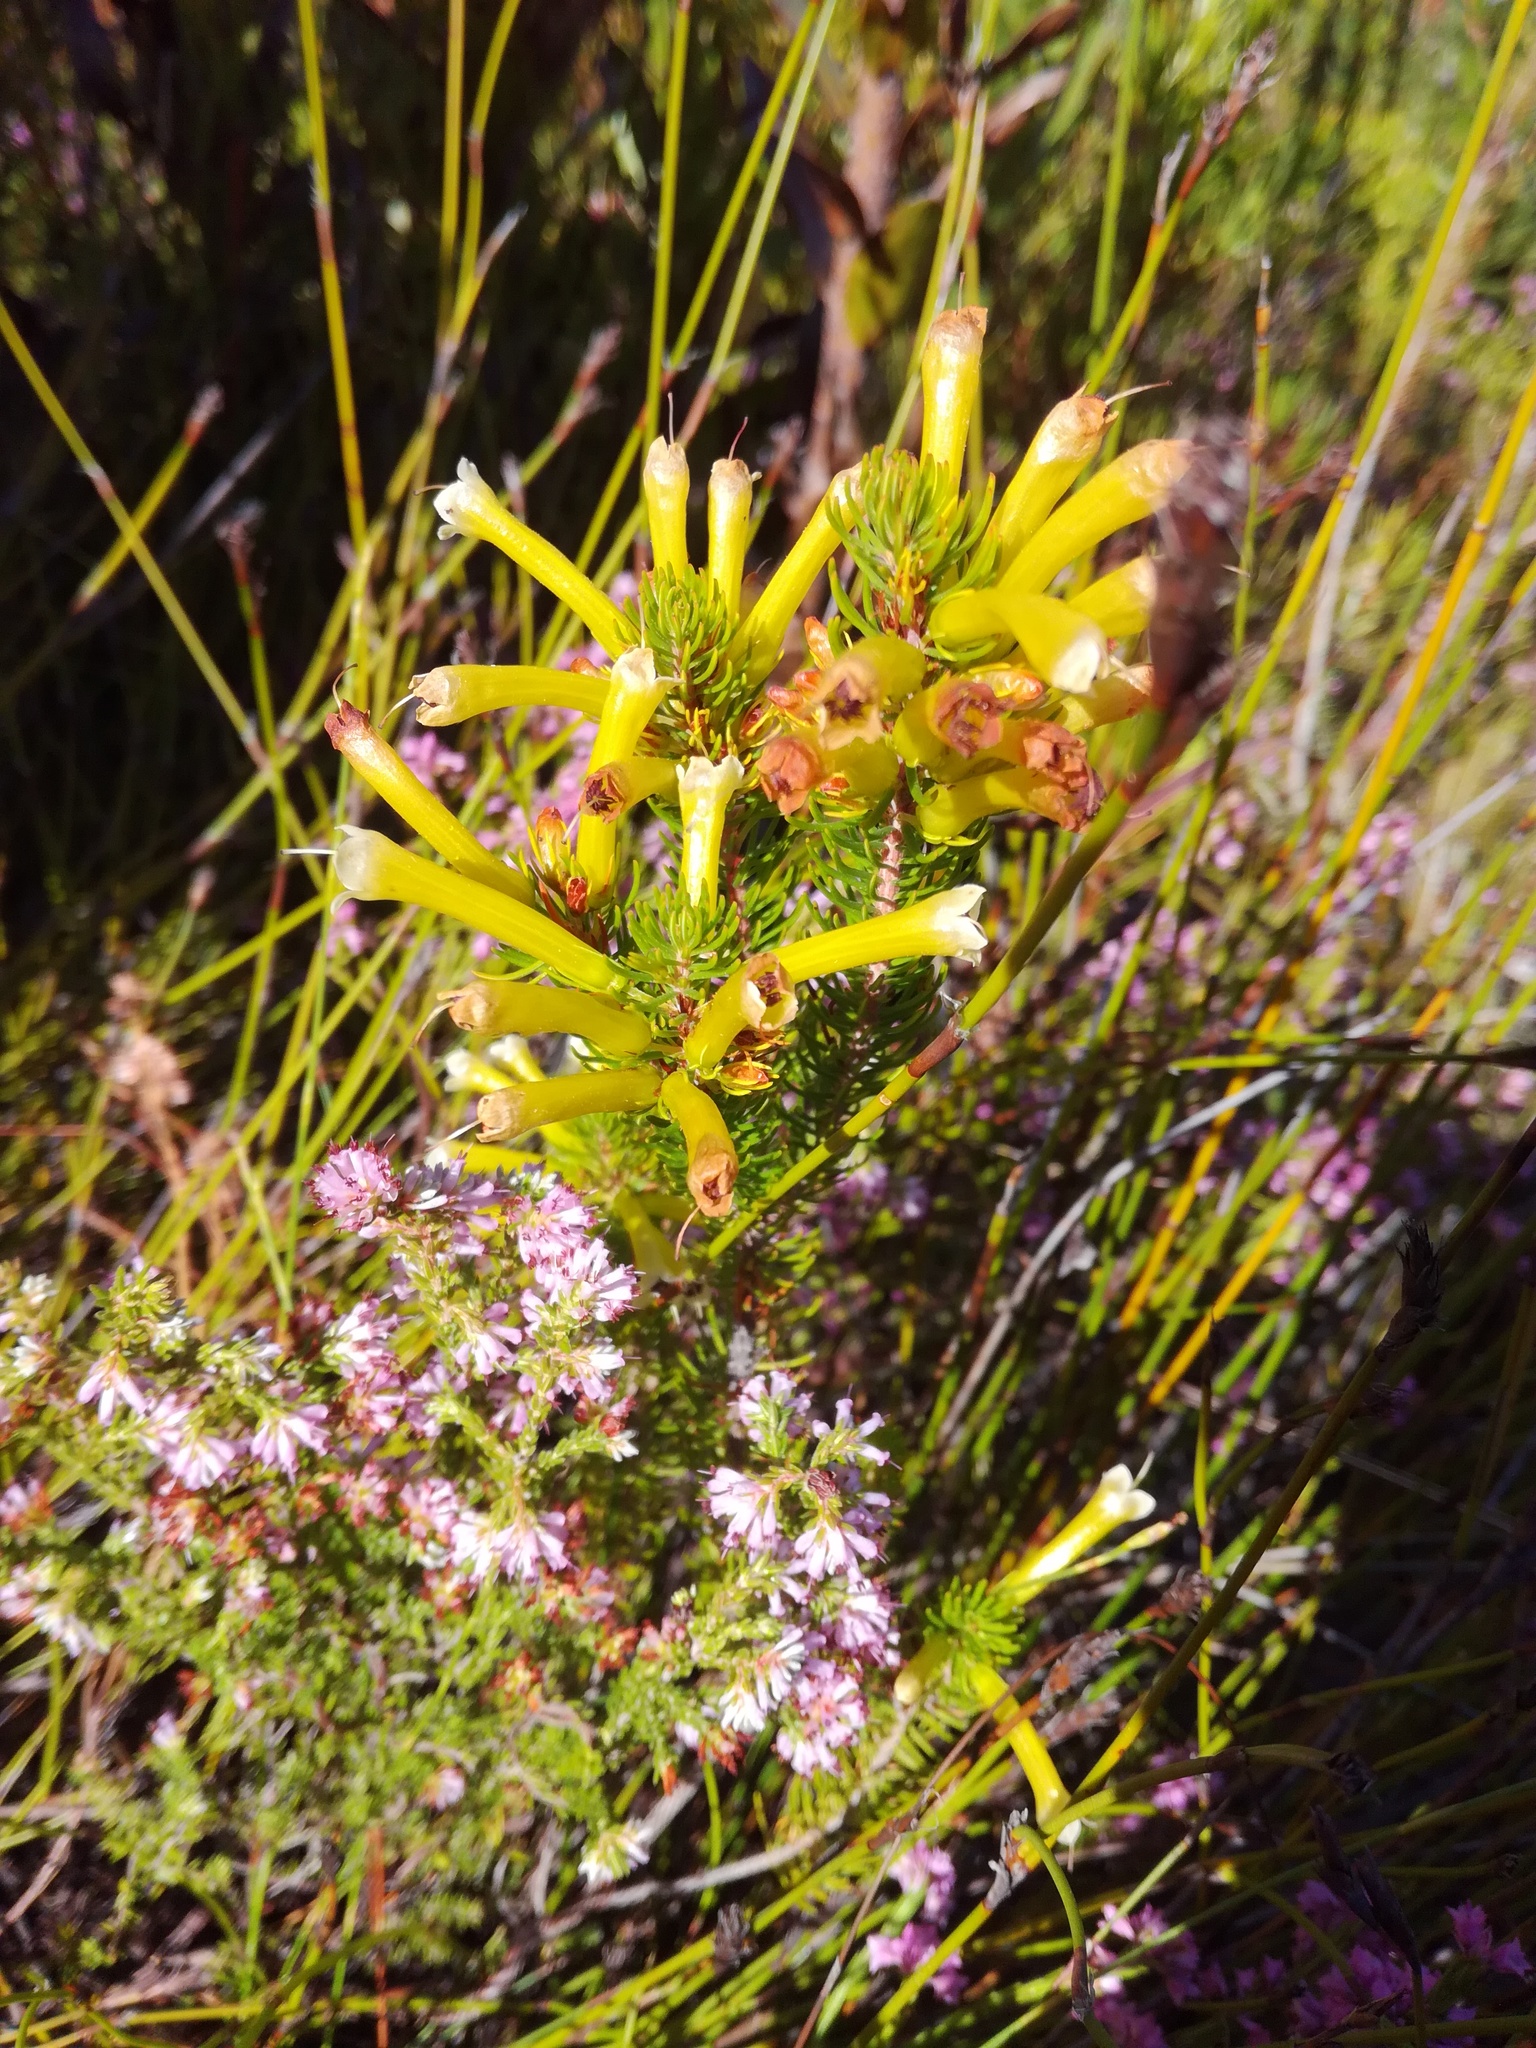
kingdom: Plantae
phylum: Tracheophyta
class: Magnoliopsida
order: Ericales
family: Ericaceae
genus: Erica
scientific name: Erica pinea
